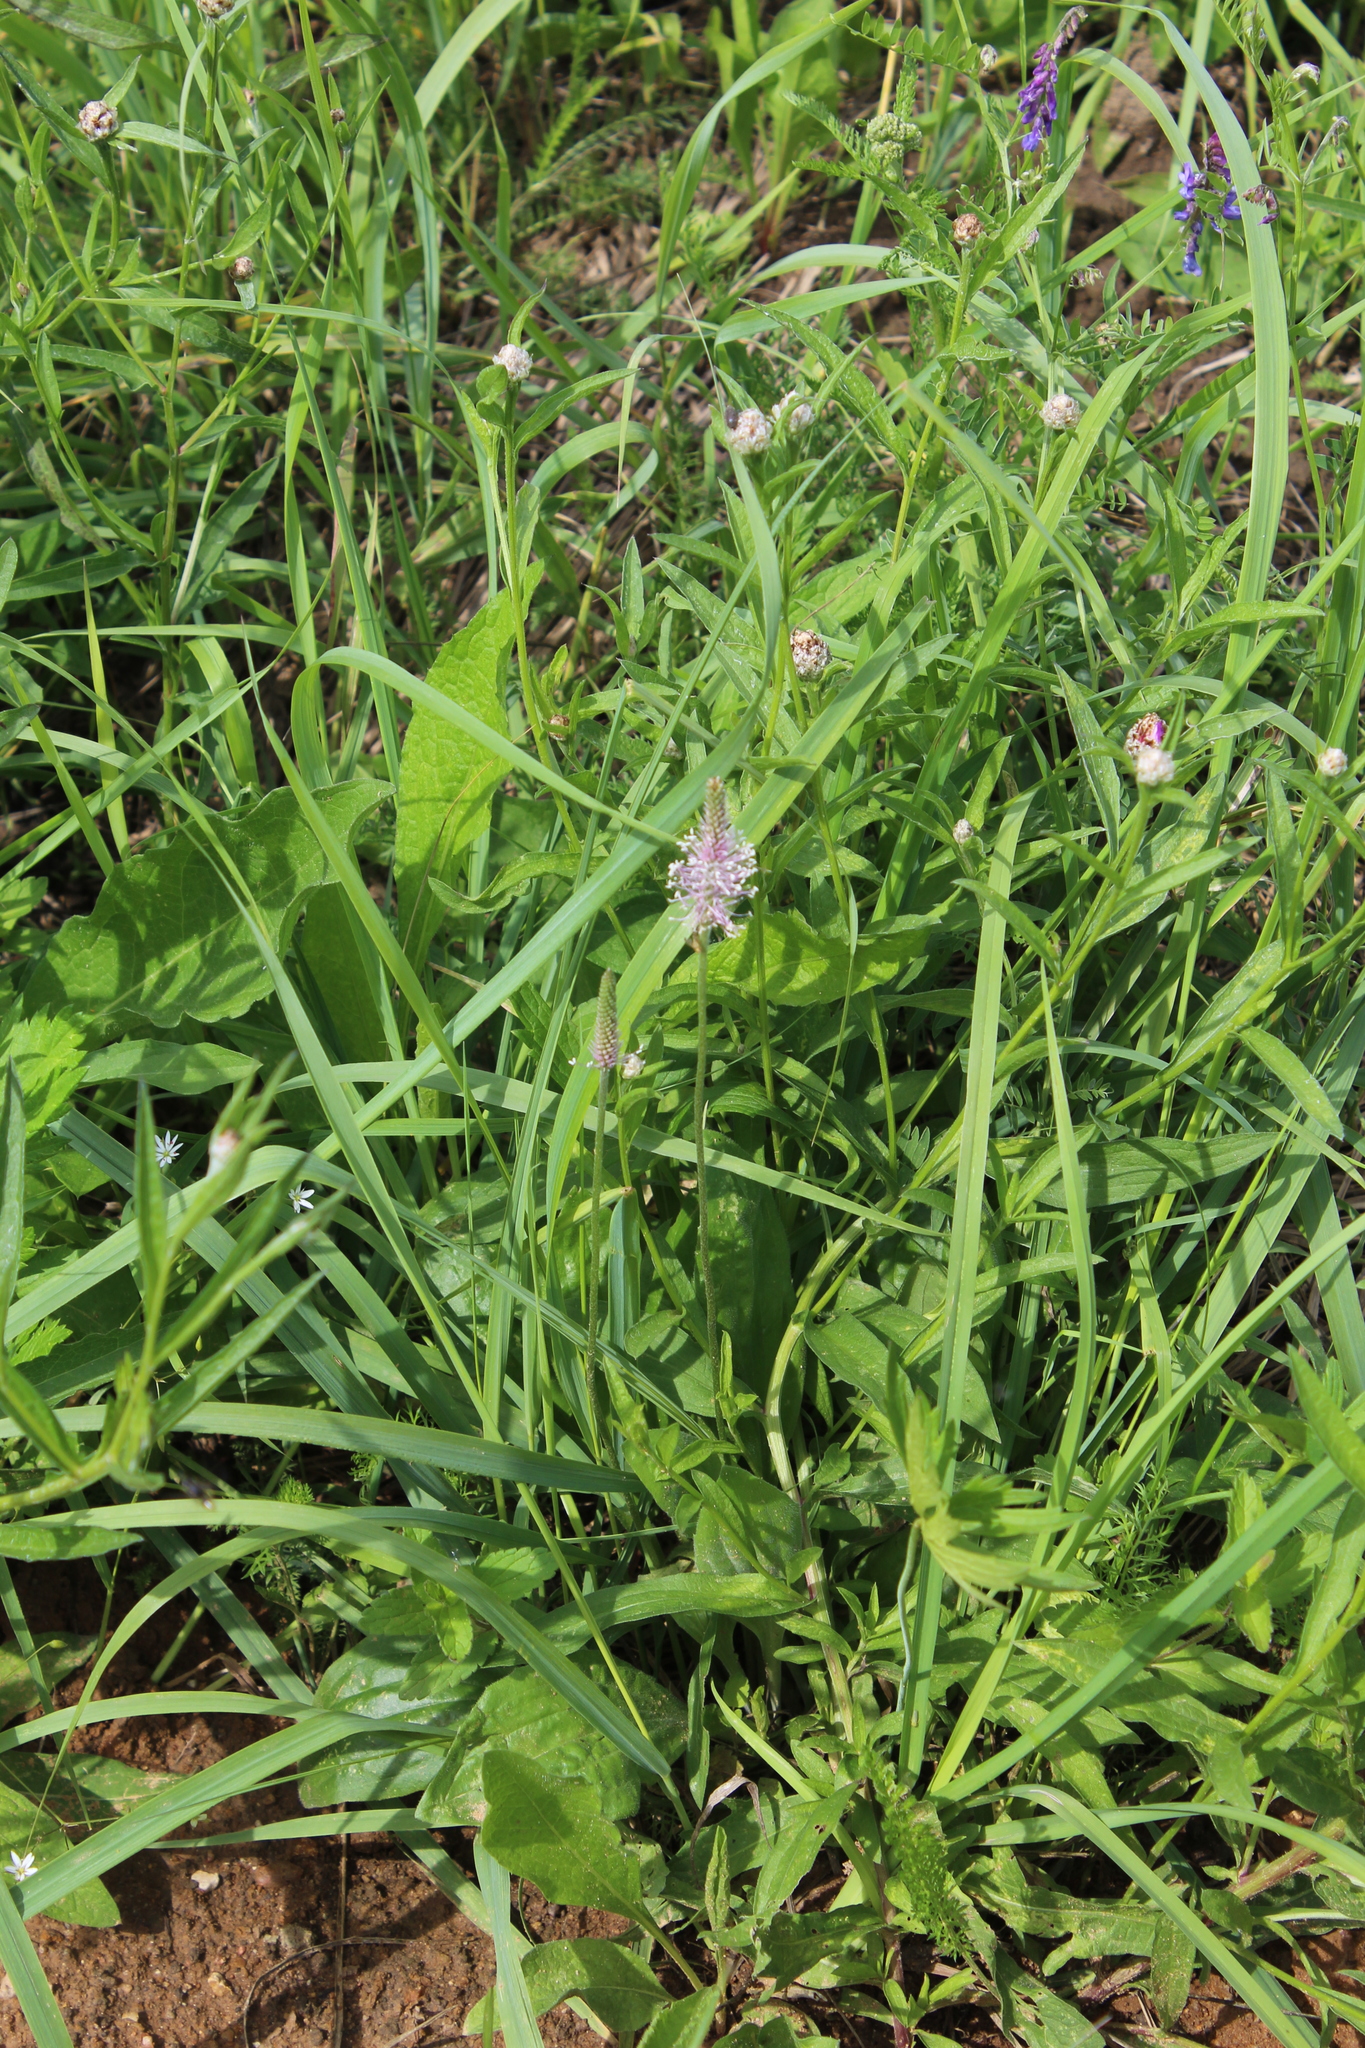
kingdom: Plantae
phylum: Tracheophyta
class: Magnoliopsida
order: Lamiales
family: Plantaginaceae
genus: Plantago
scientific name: Plantago media
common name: Hoary plantain
